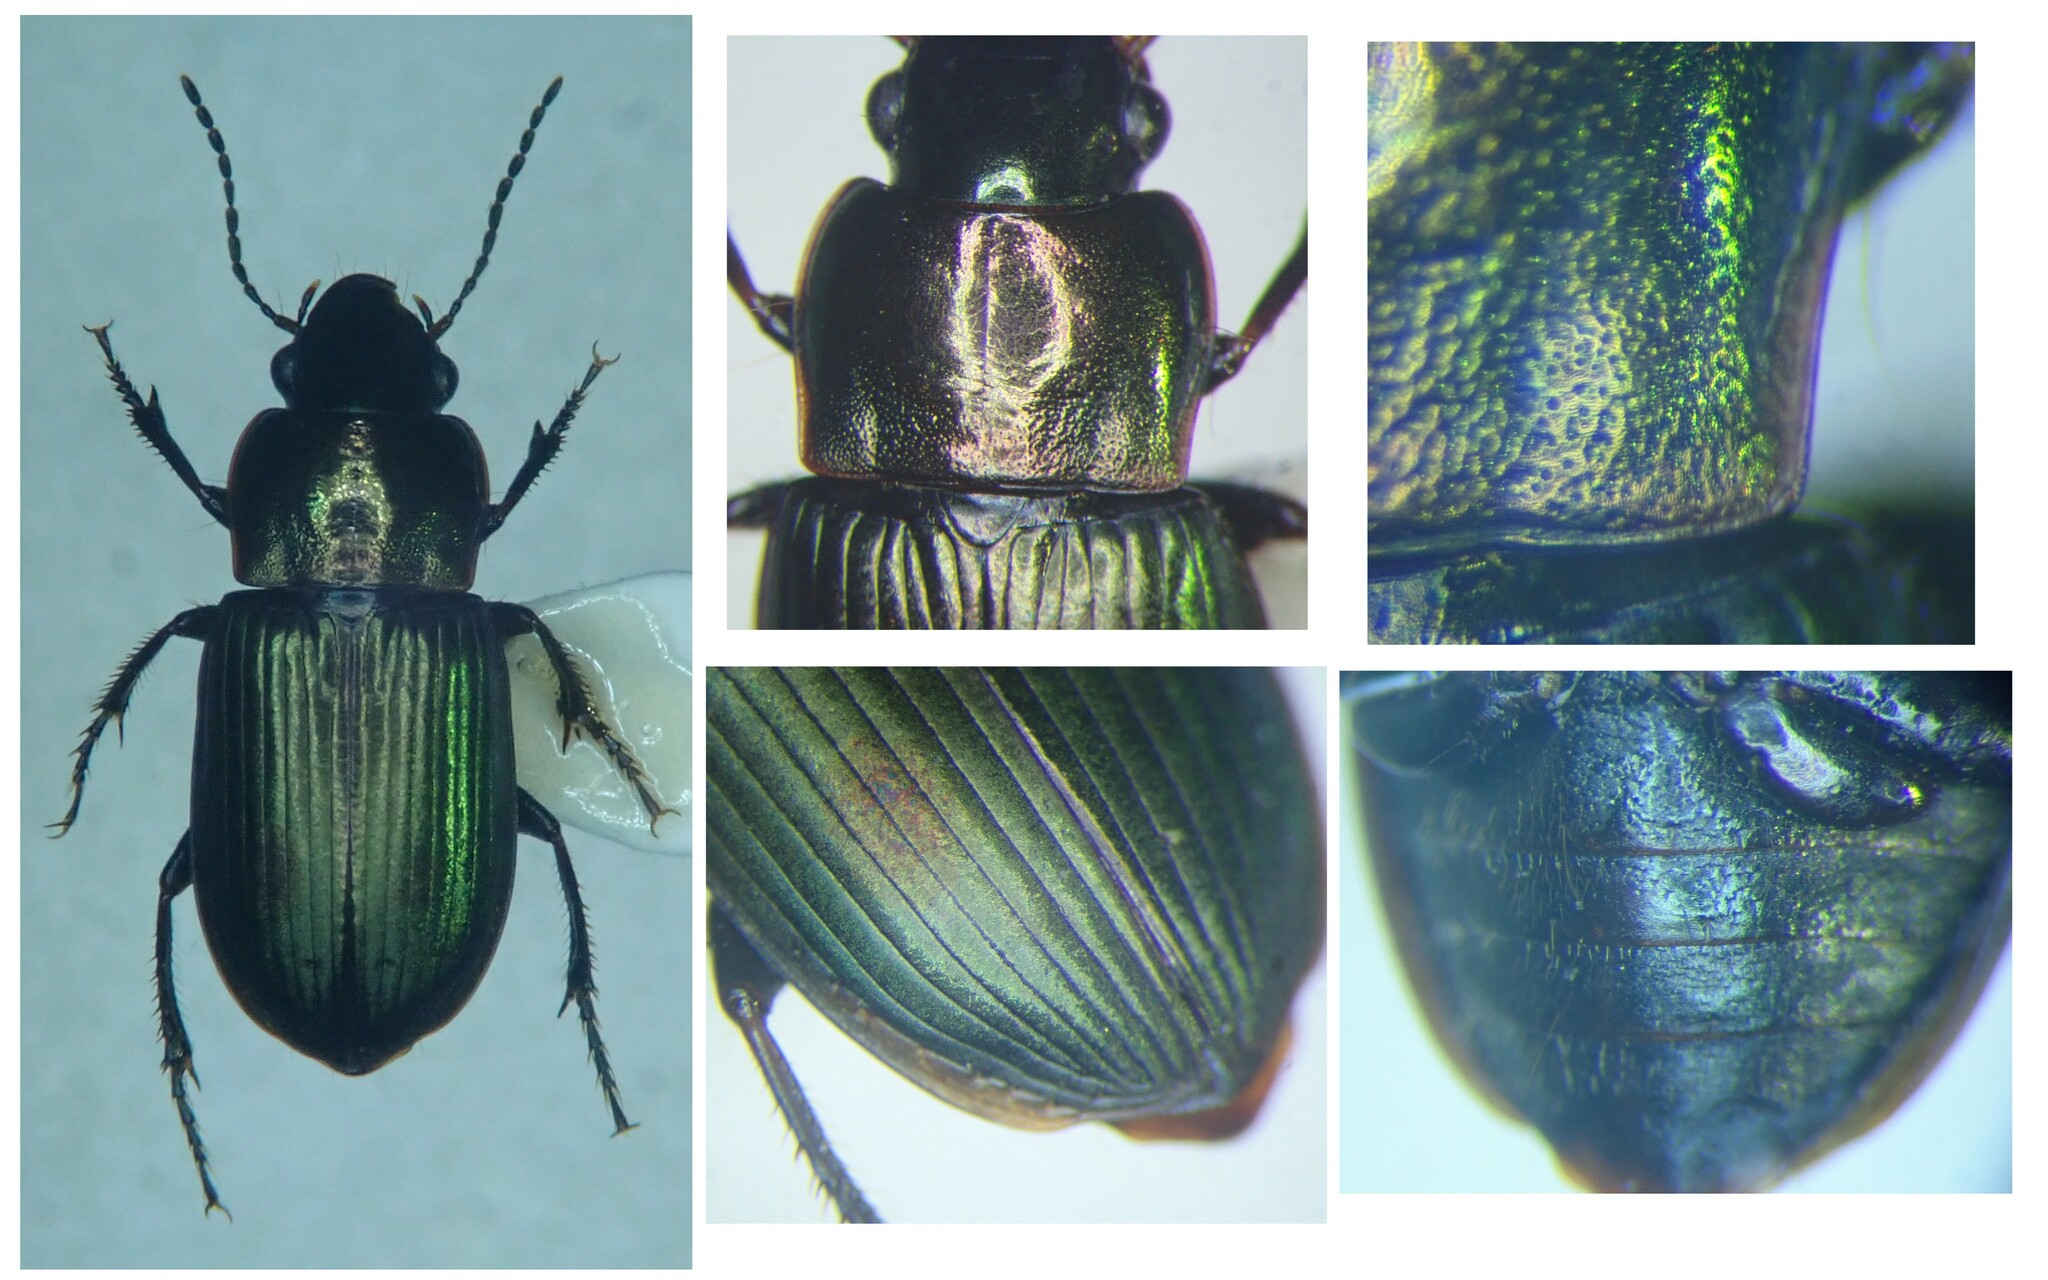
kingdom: Animalia
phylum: Arthropoda
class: Insecta
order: Coleoptera
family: Carabidae
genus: Harpalus
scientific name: Harpalus distinguendus
